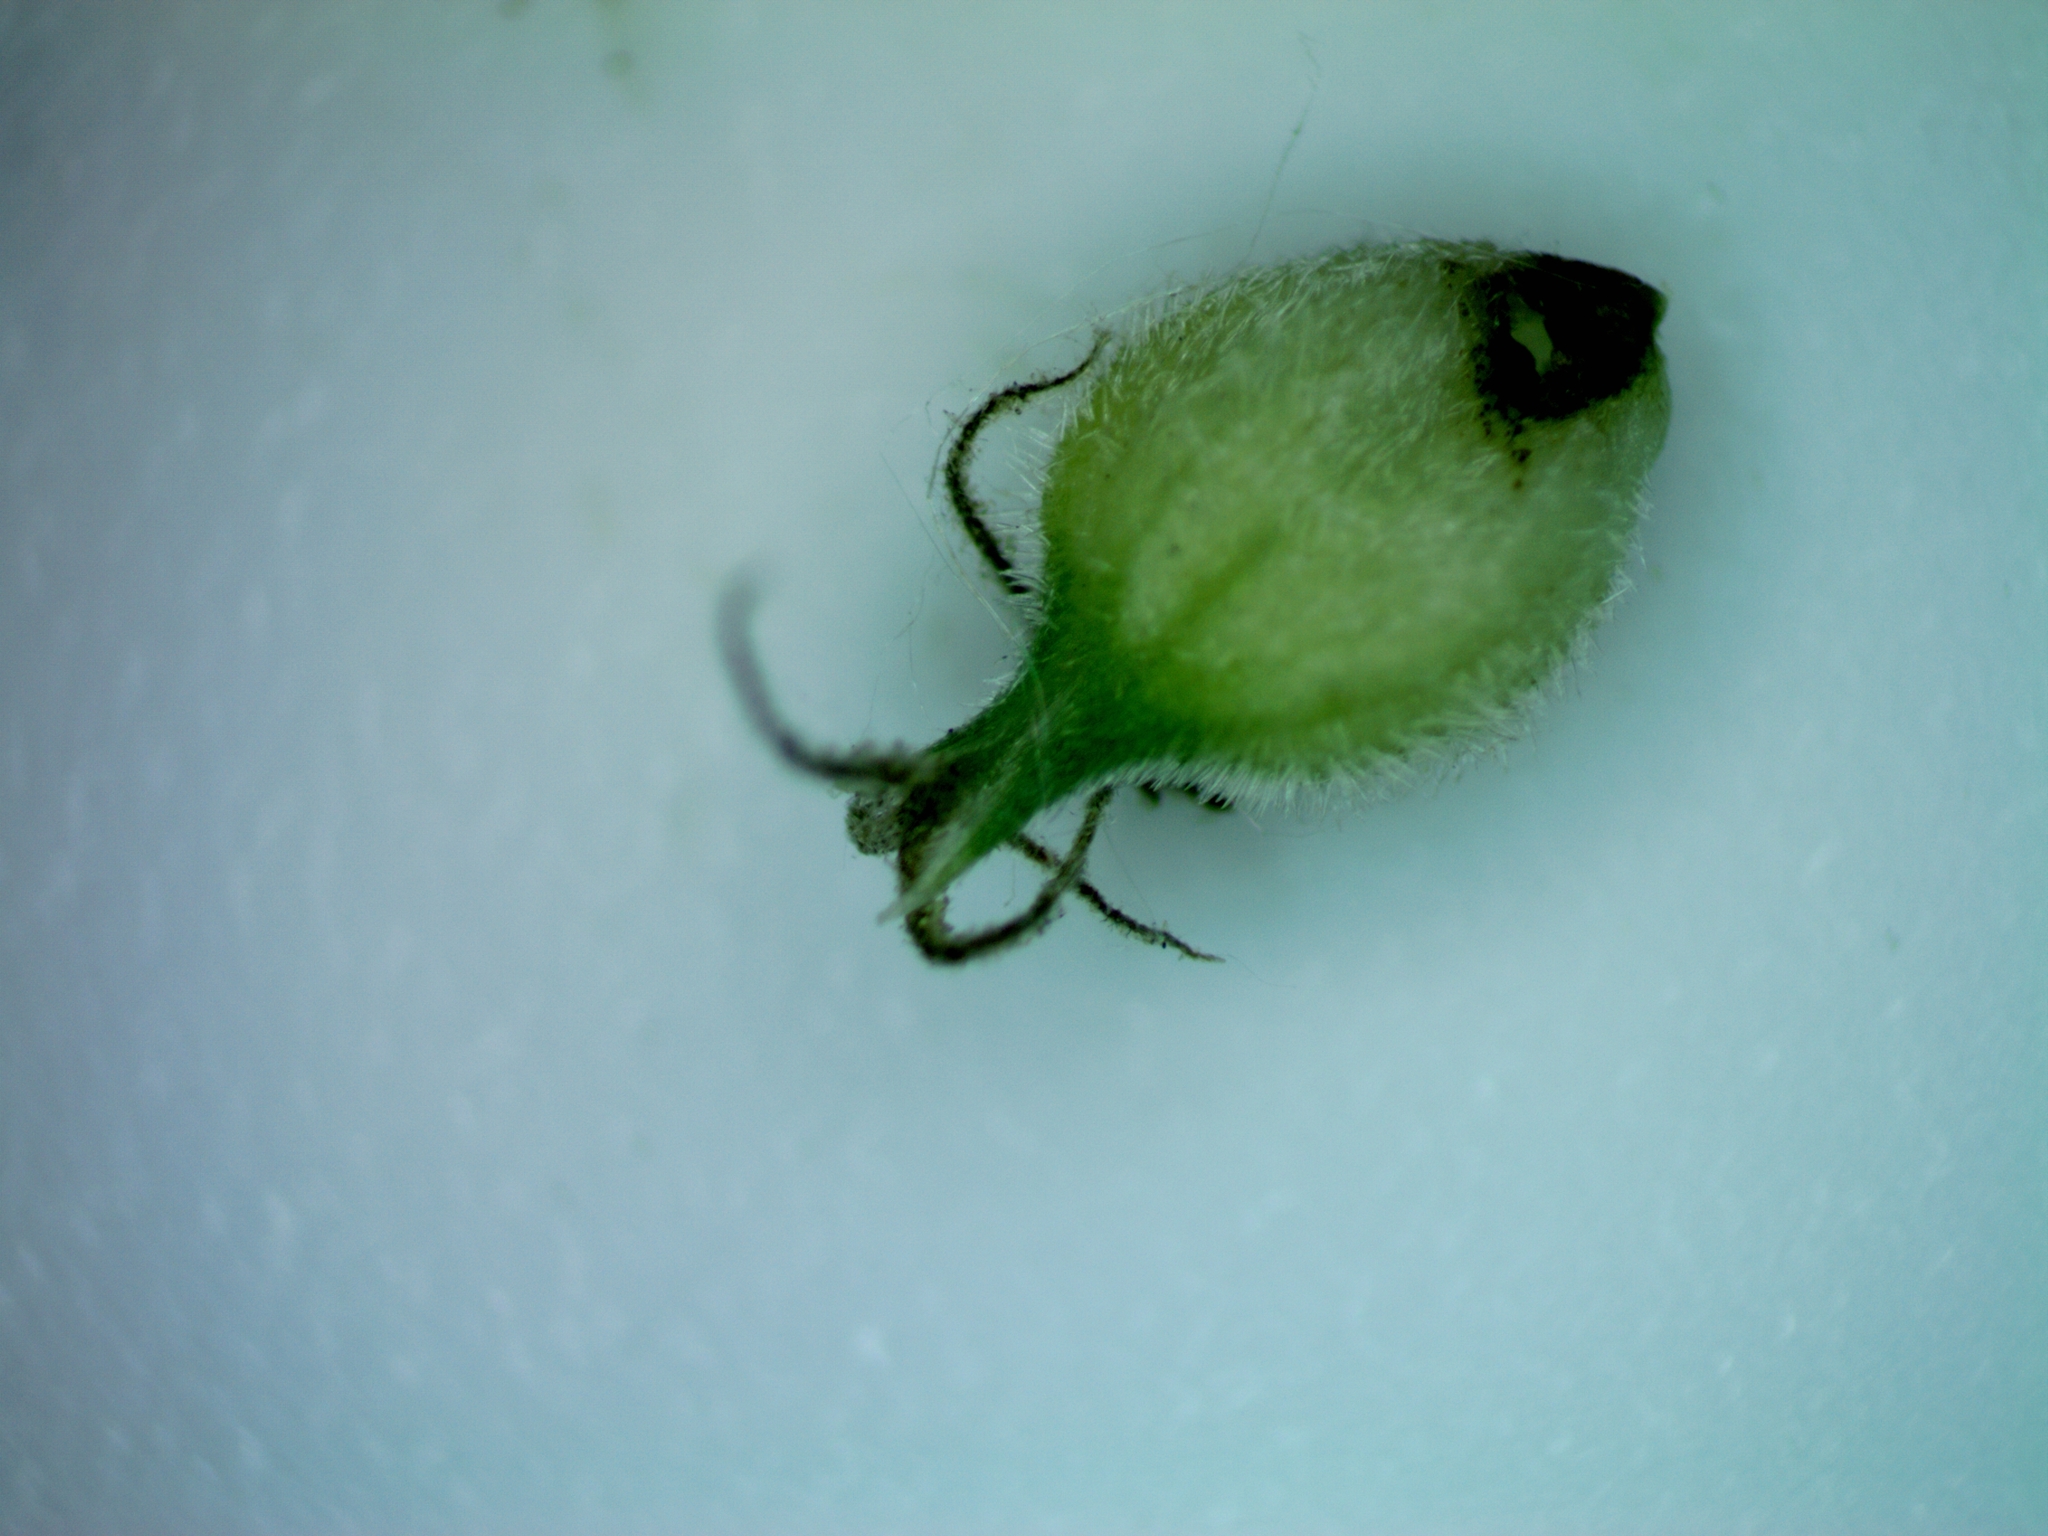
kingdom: Plantae
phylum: Tracheophyta
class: Liliopsida
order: Poales
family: Cyperaceae
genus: Carex
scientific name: Carex lasiocarpa
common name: Slender sedge
